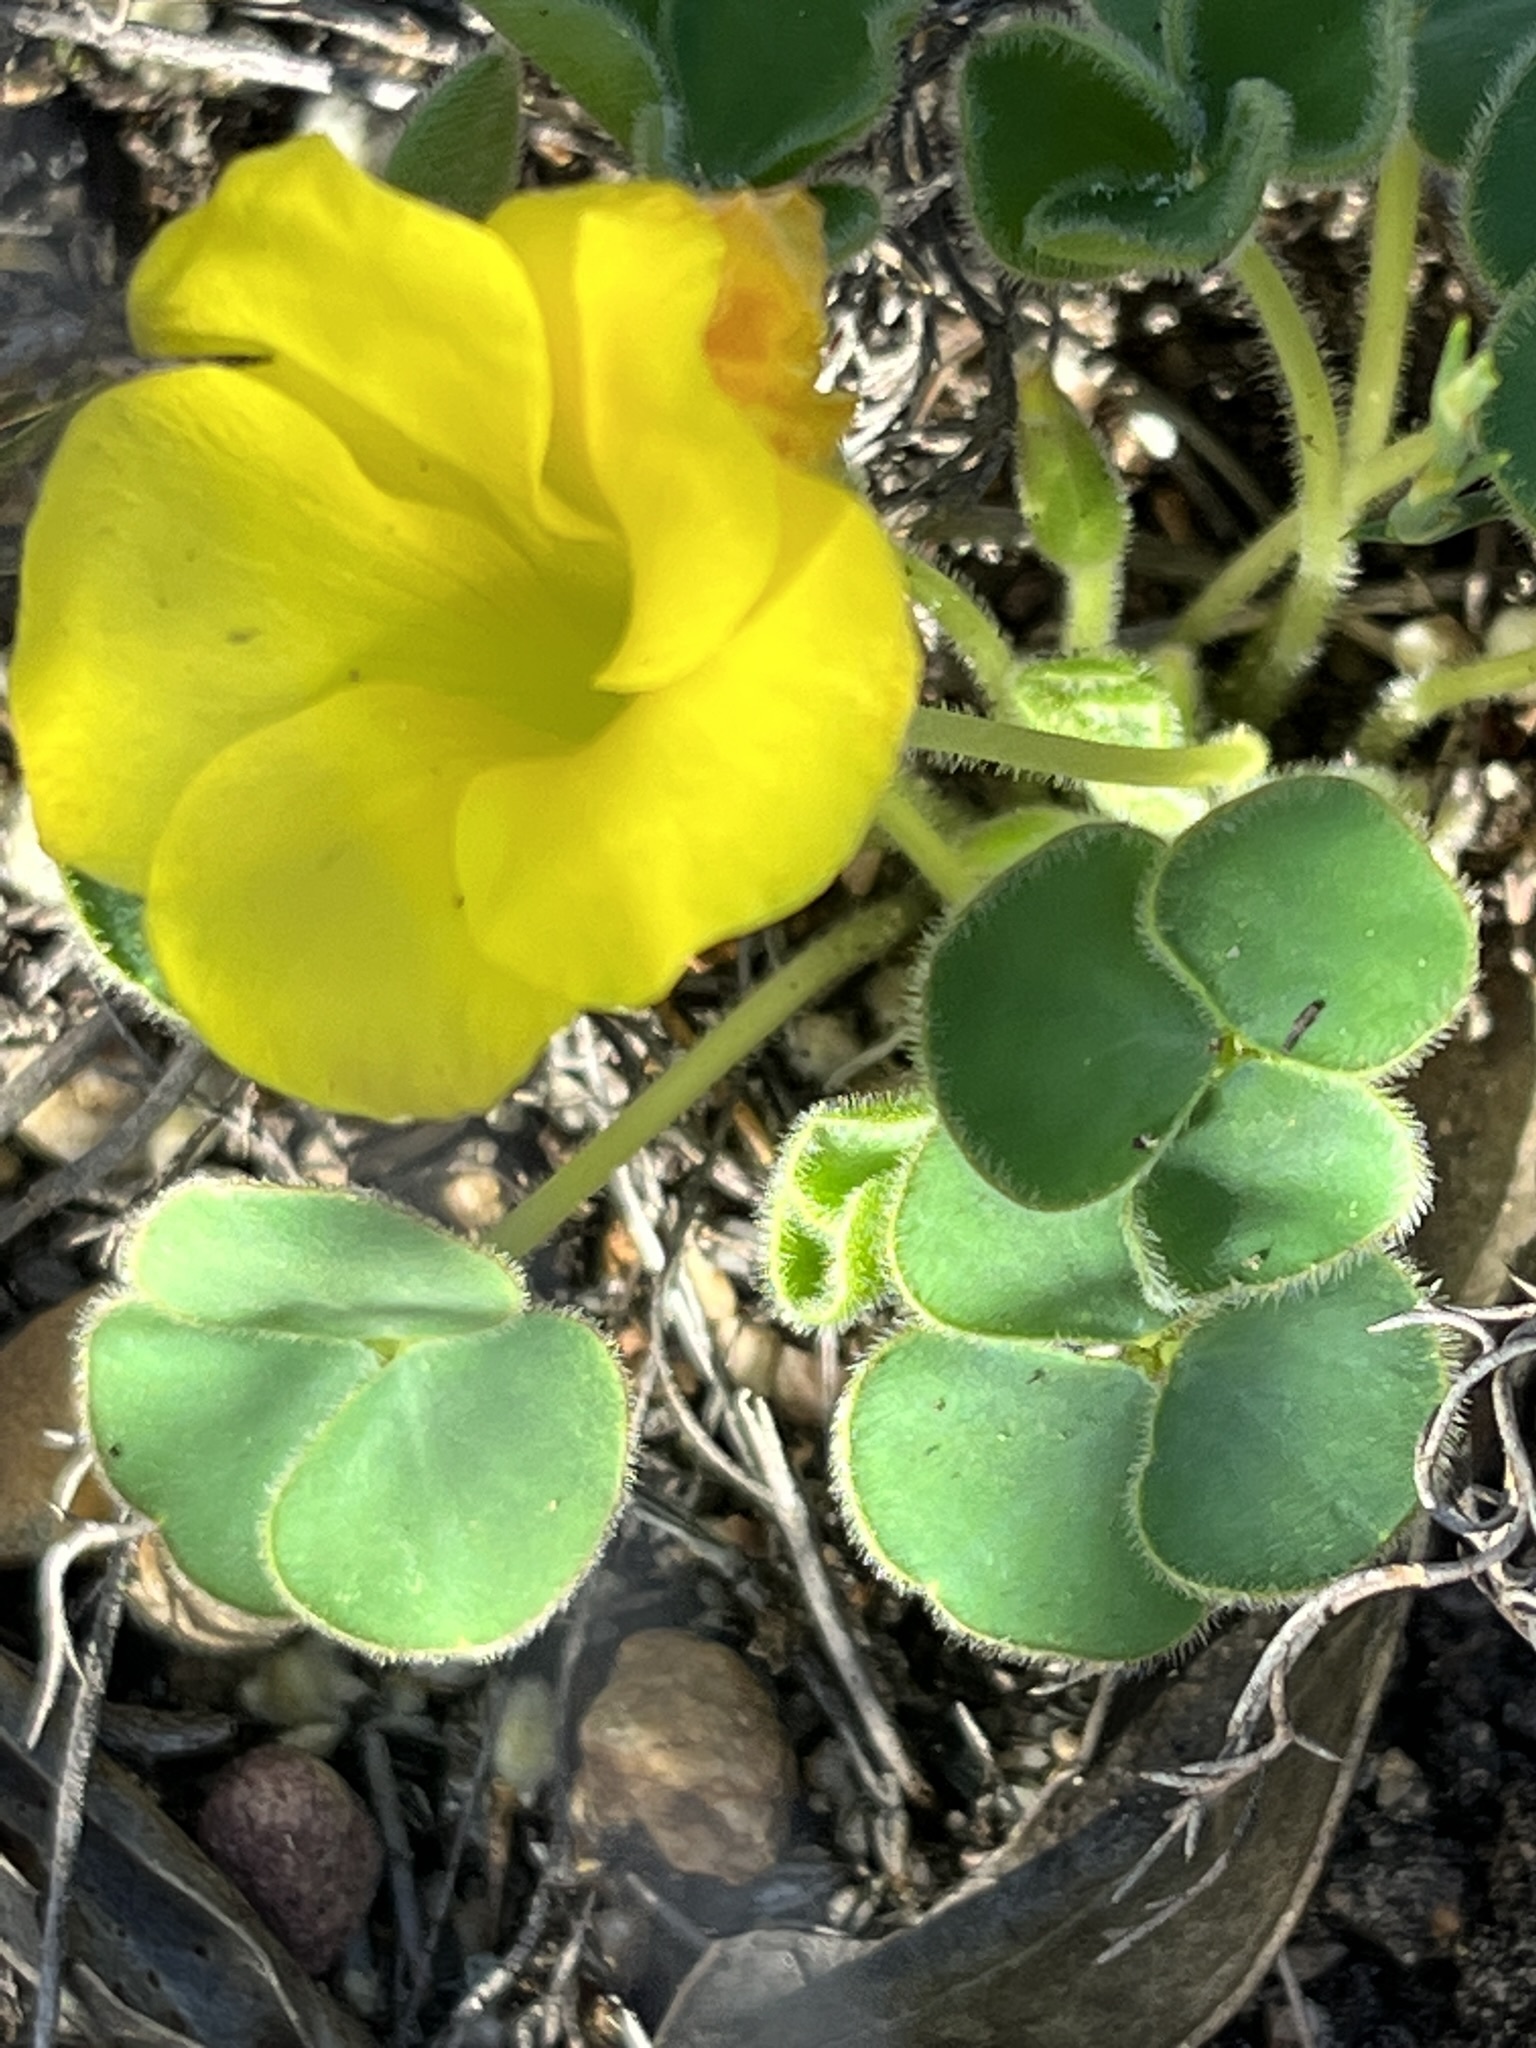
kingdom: Plantae
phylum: Tracheophyta
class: Magnoliopsida
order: Oxalidales
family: Oxalidaceae
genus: Oxalis
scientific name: Oxalis luteola
